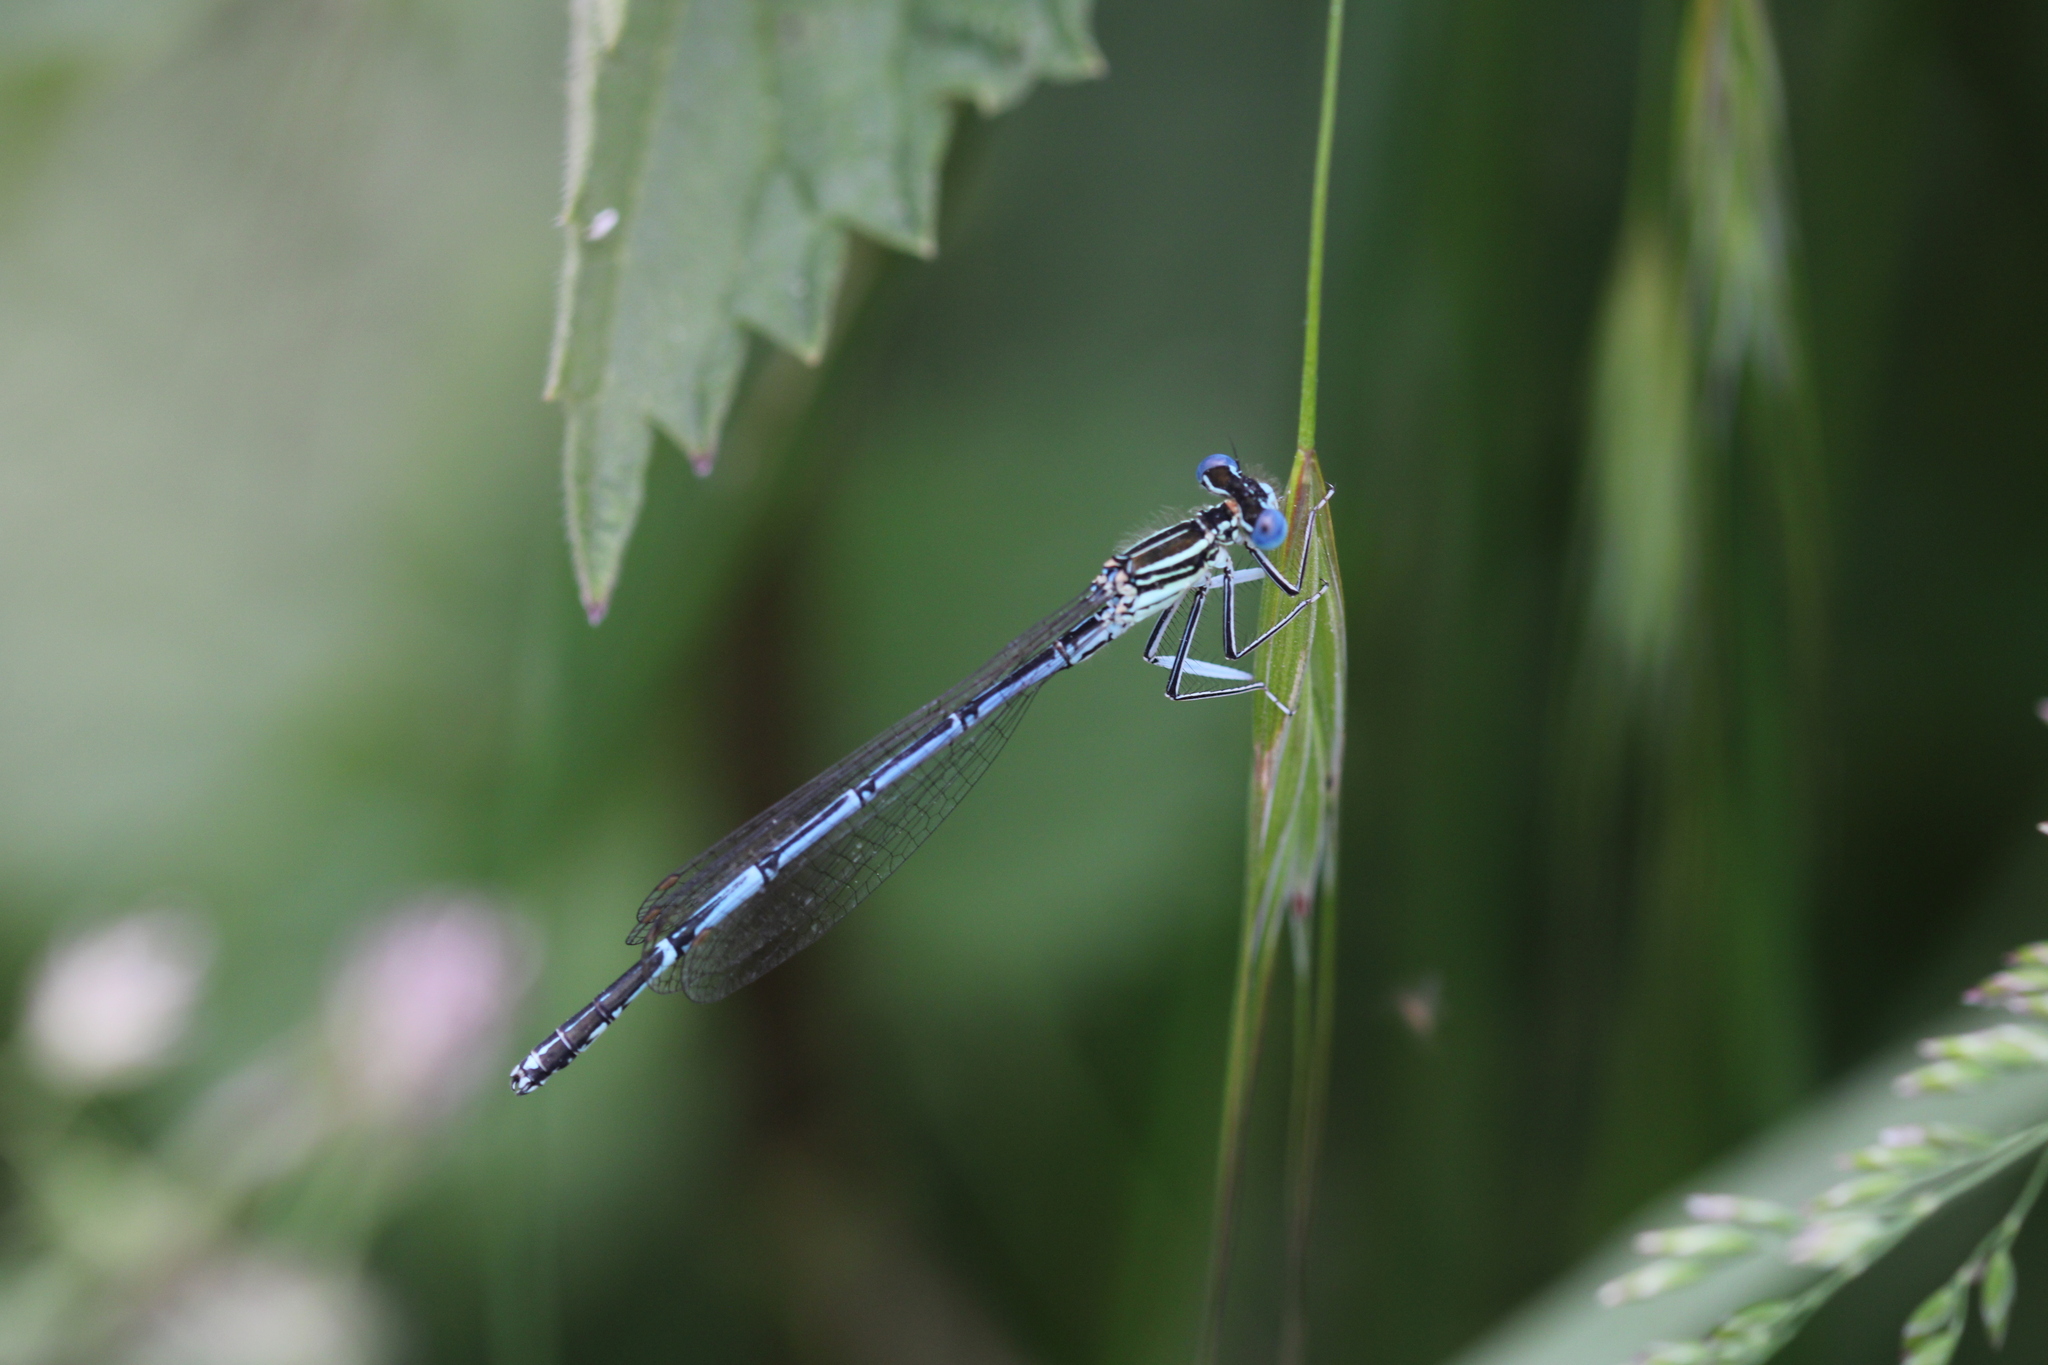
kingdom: Animalia
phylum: Arthropoda
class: Insecta
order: Odonata
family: Platycnemididae
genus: Platycnemis
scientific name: Platycnemis pennipes
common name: White-legged damselfly
